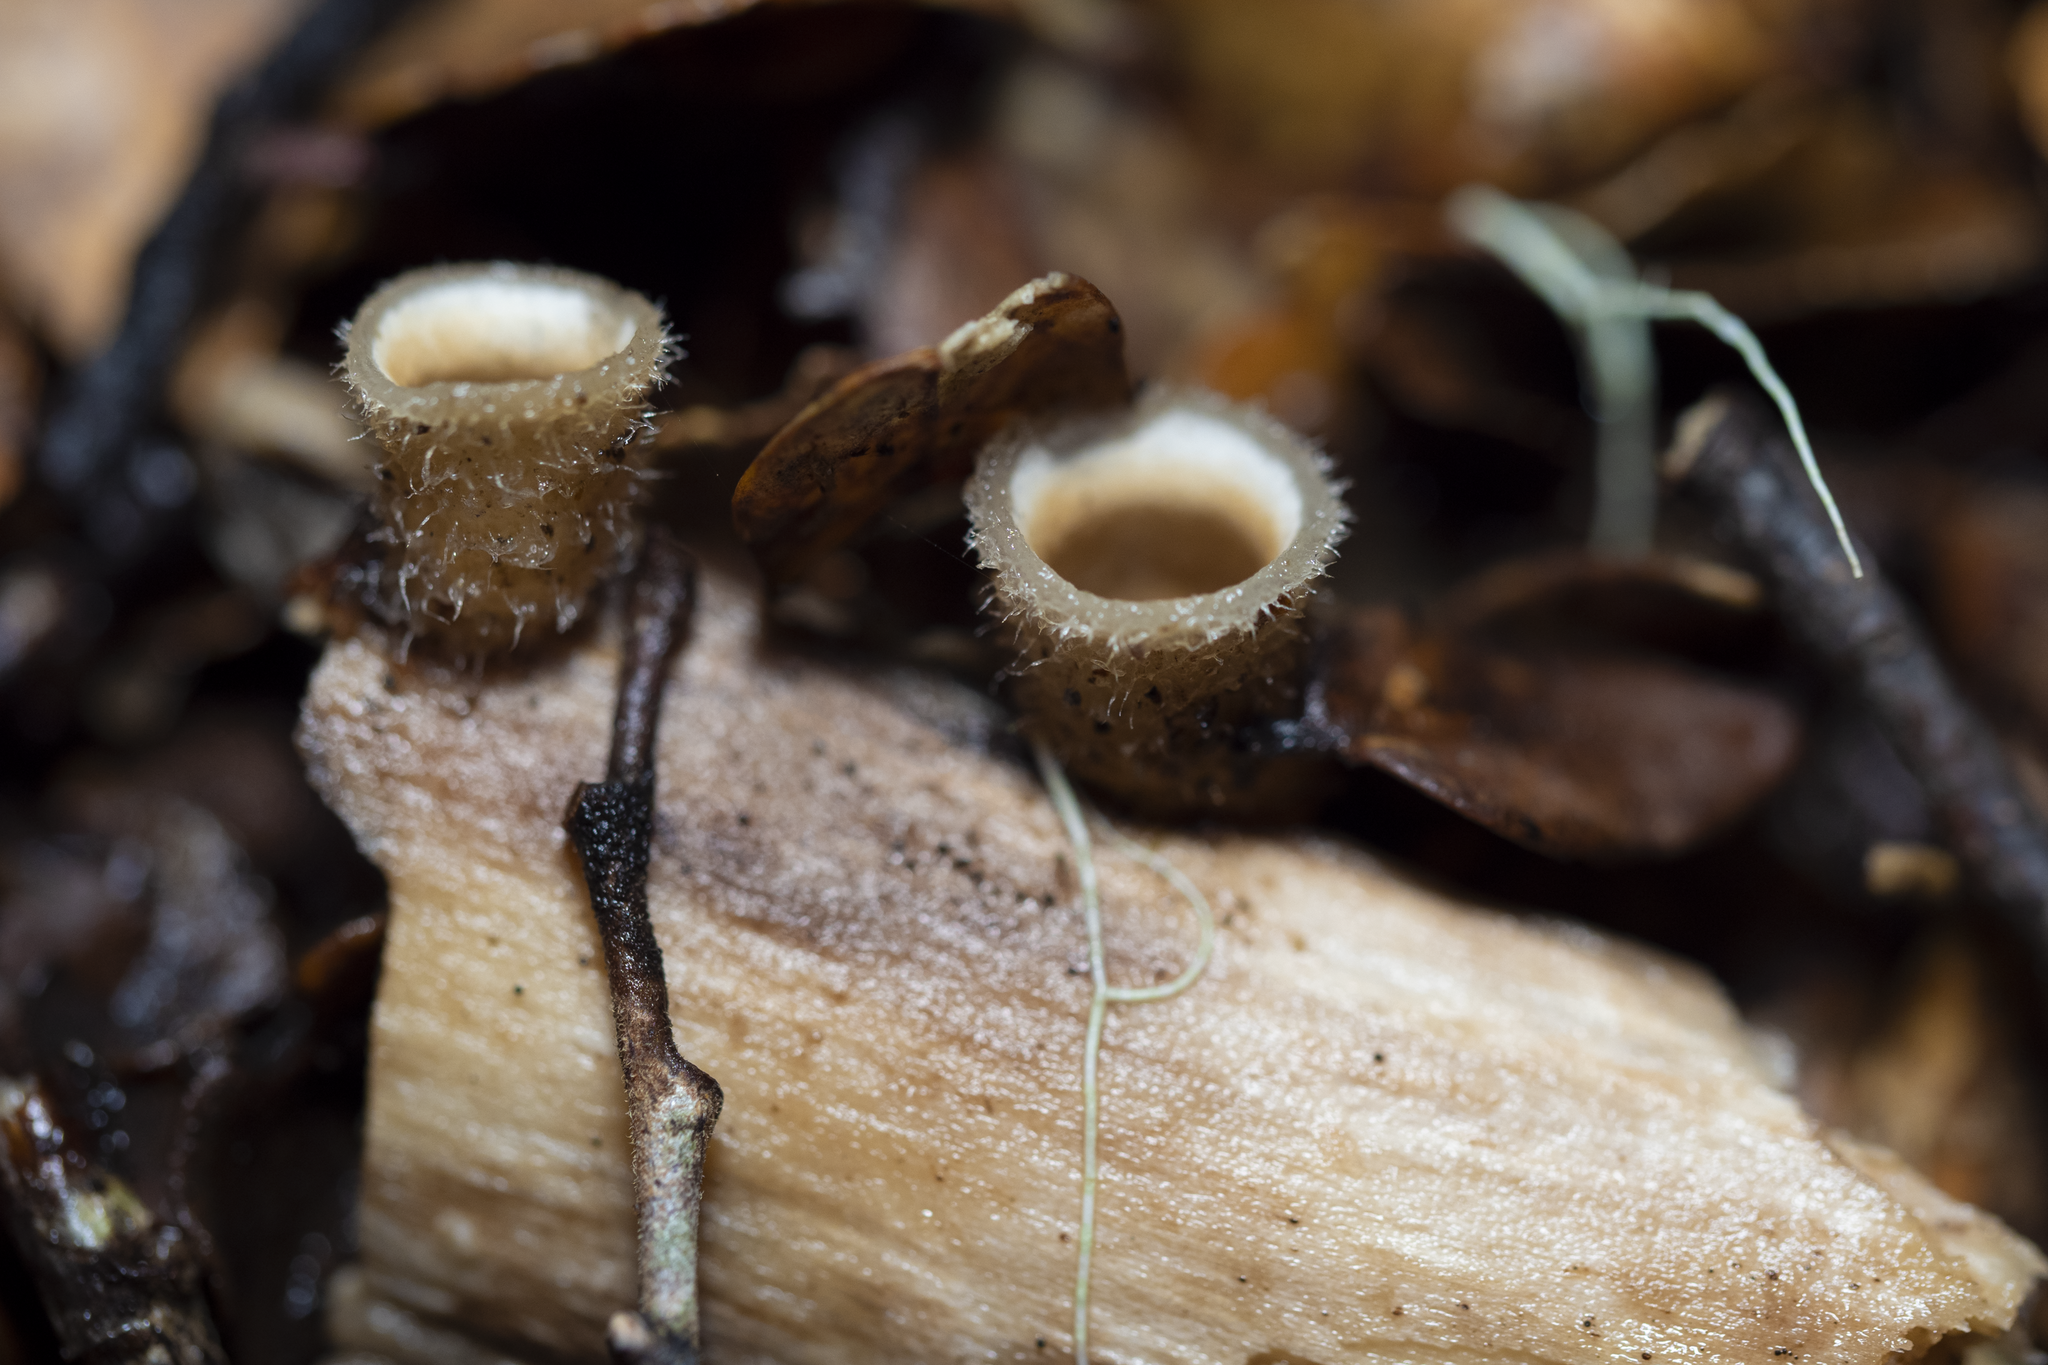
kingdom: Fungi
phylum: Basidiomycota
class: Agaricomycetes
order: Agaricales
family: Agaricaceae
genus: Nidula
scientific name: Nidula niveotomentosa
